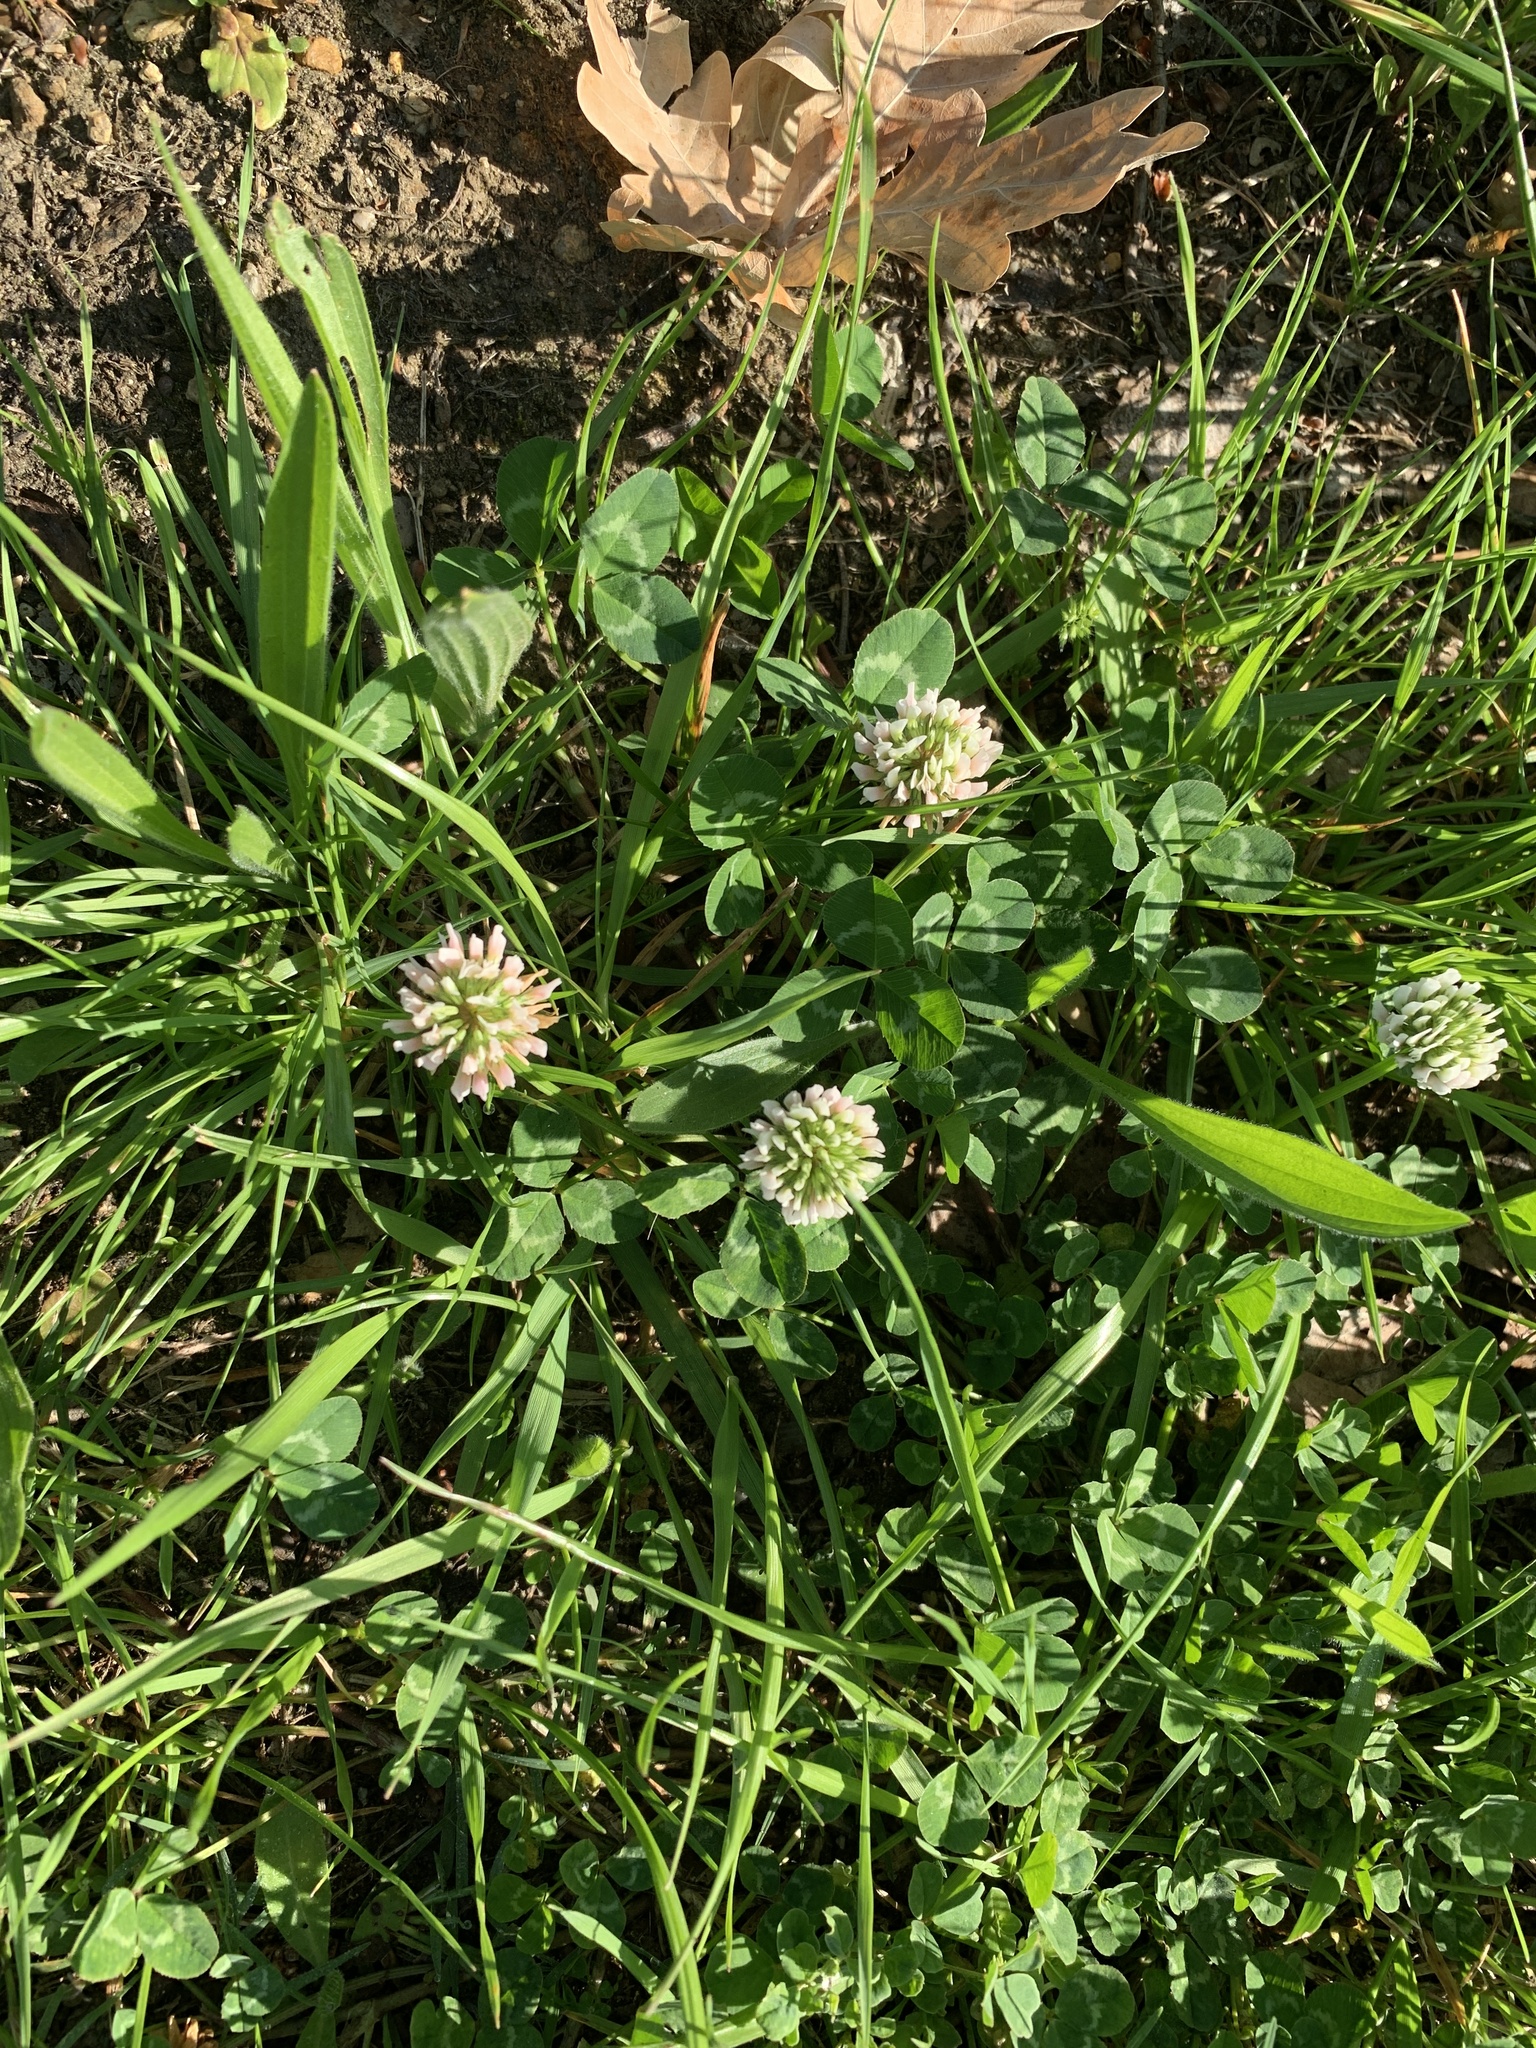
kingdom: Plantae
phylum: Tracheophyta
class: Magnoliopsida
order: Fabales
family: Fabaceae
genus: Trifolium
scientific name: Trifolium repens
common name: White clover
